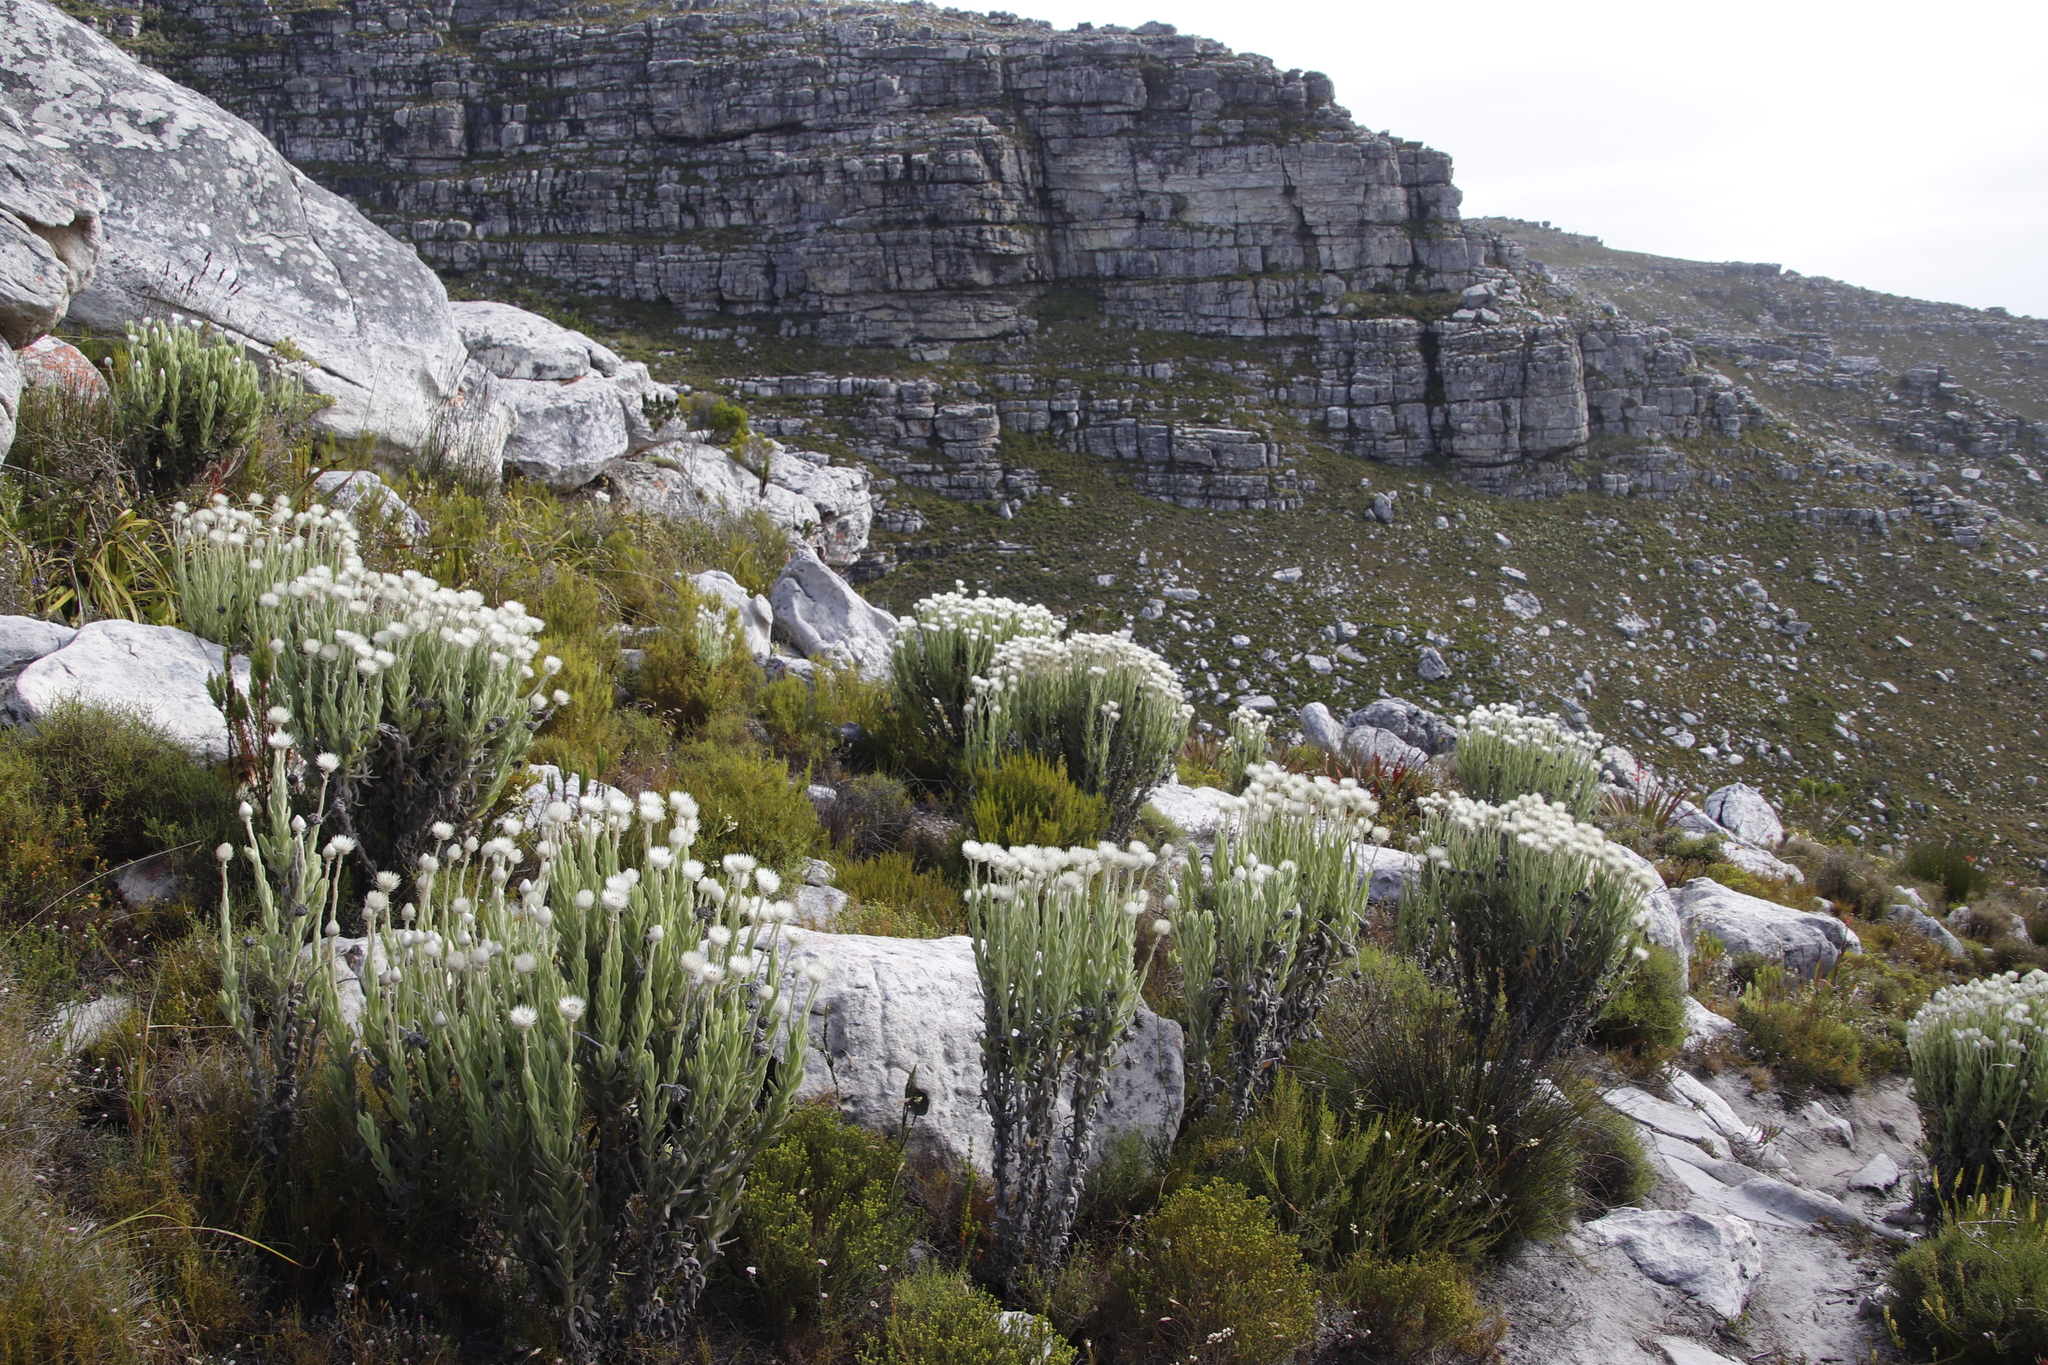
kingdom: Plantae
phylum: Tracheophyta
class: Magnoliopsida
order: Asterales
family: Asteraceae
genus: Syncarpha
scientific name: Syncarpha vestita
